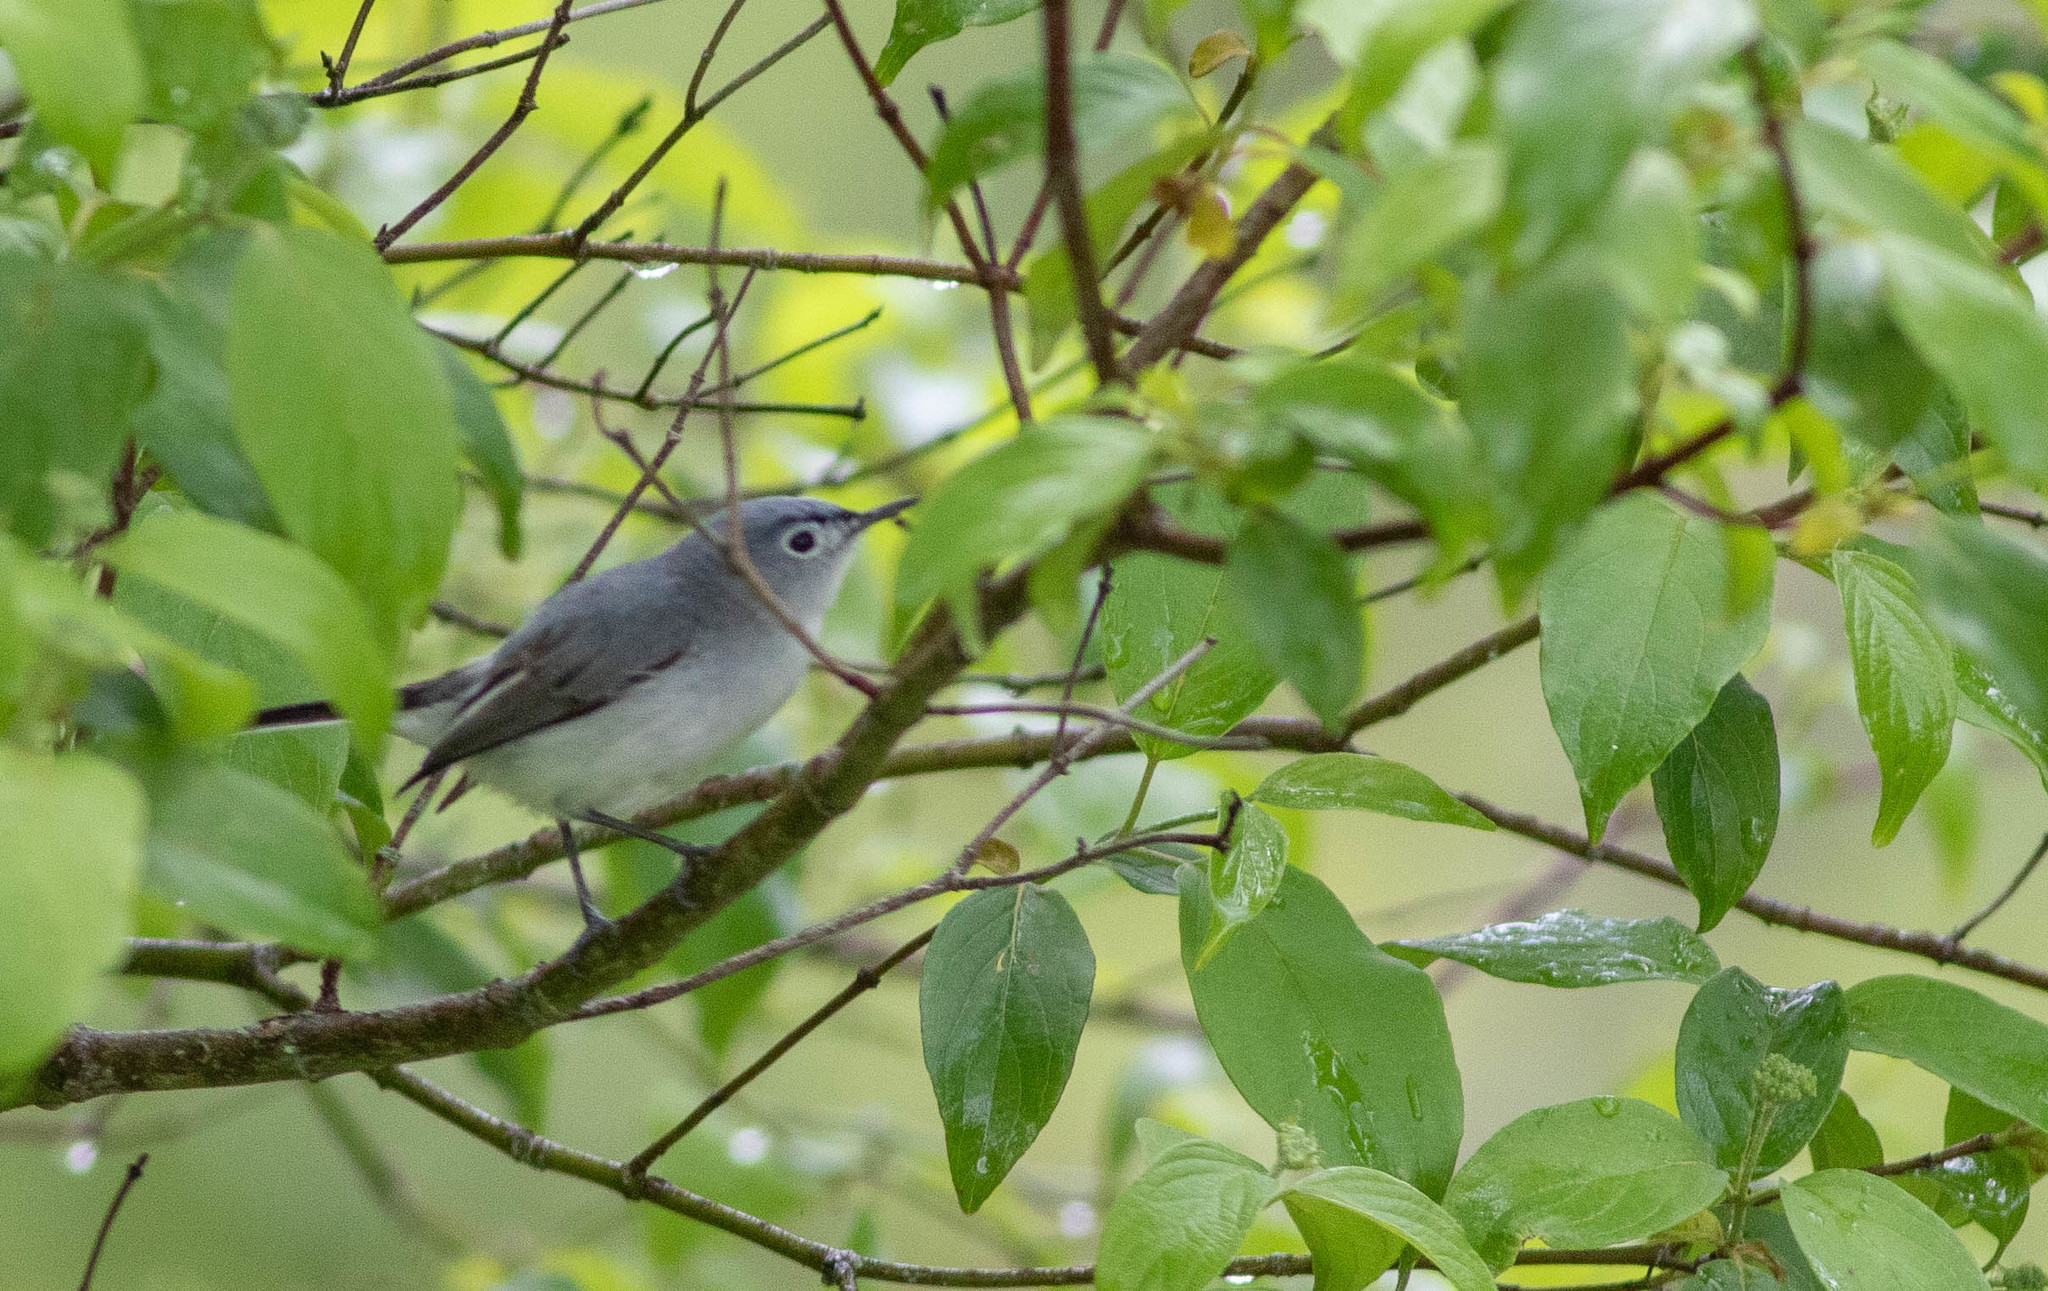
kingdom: Animalia
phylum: Chordata
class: Aves
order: Passeriformes
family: Polioptilidae
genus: Polioptila
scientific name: Polioptila caerulea
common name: Blue-gray gnatcatcher
